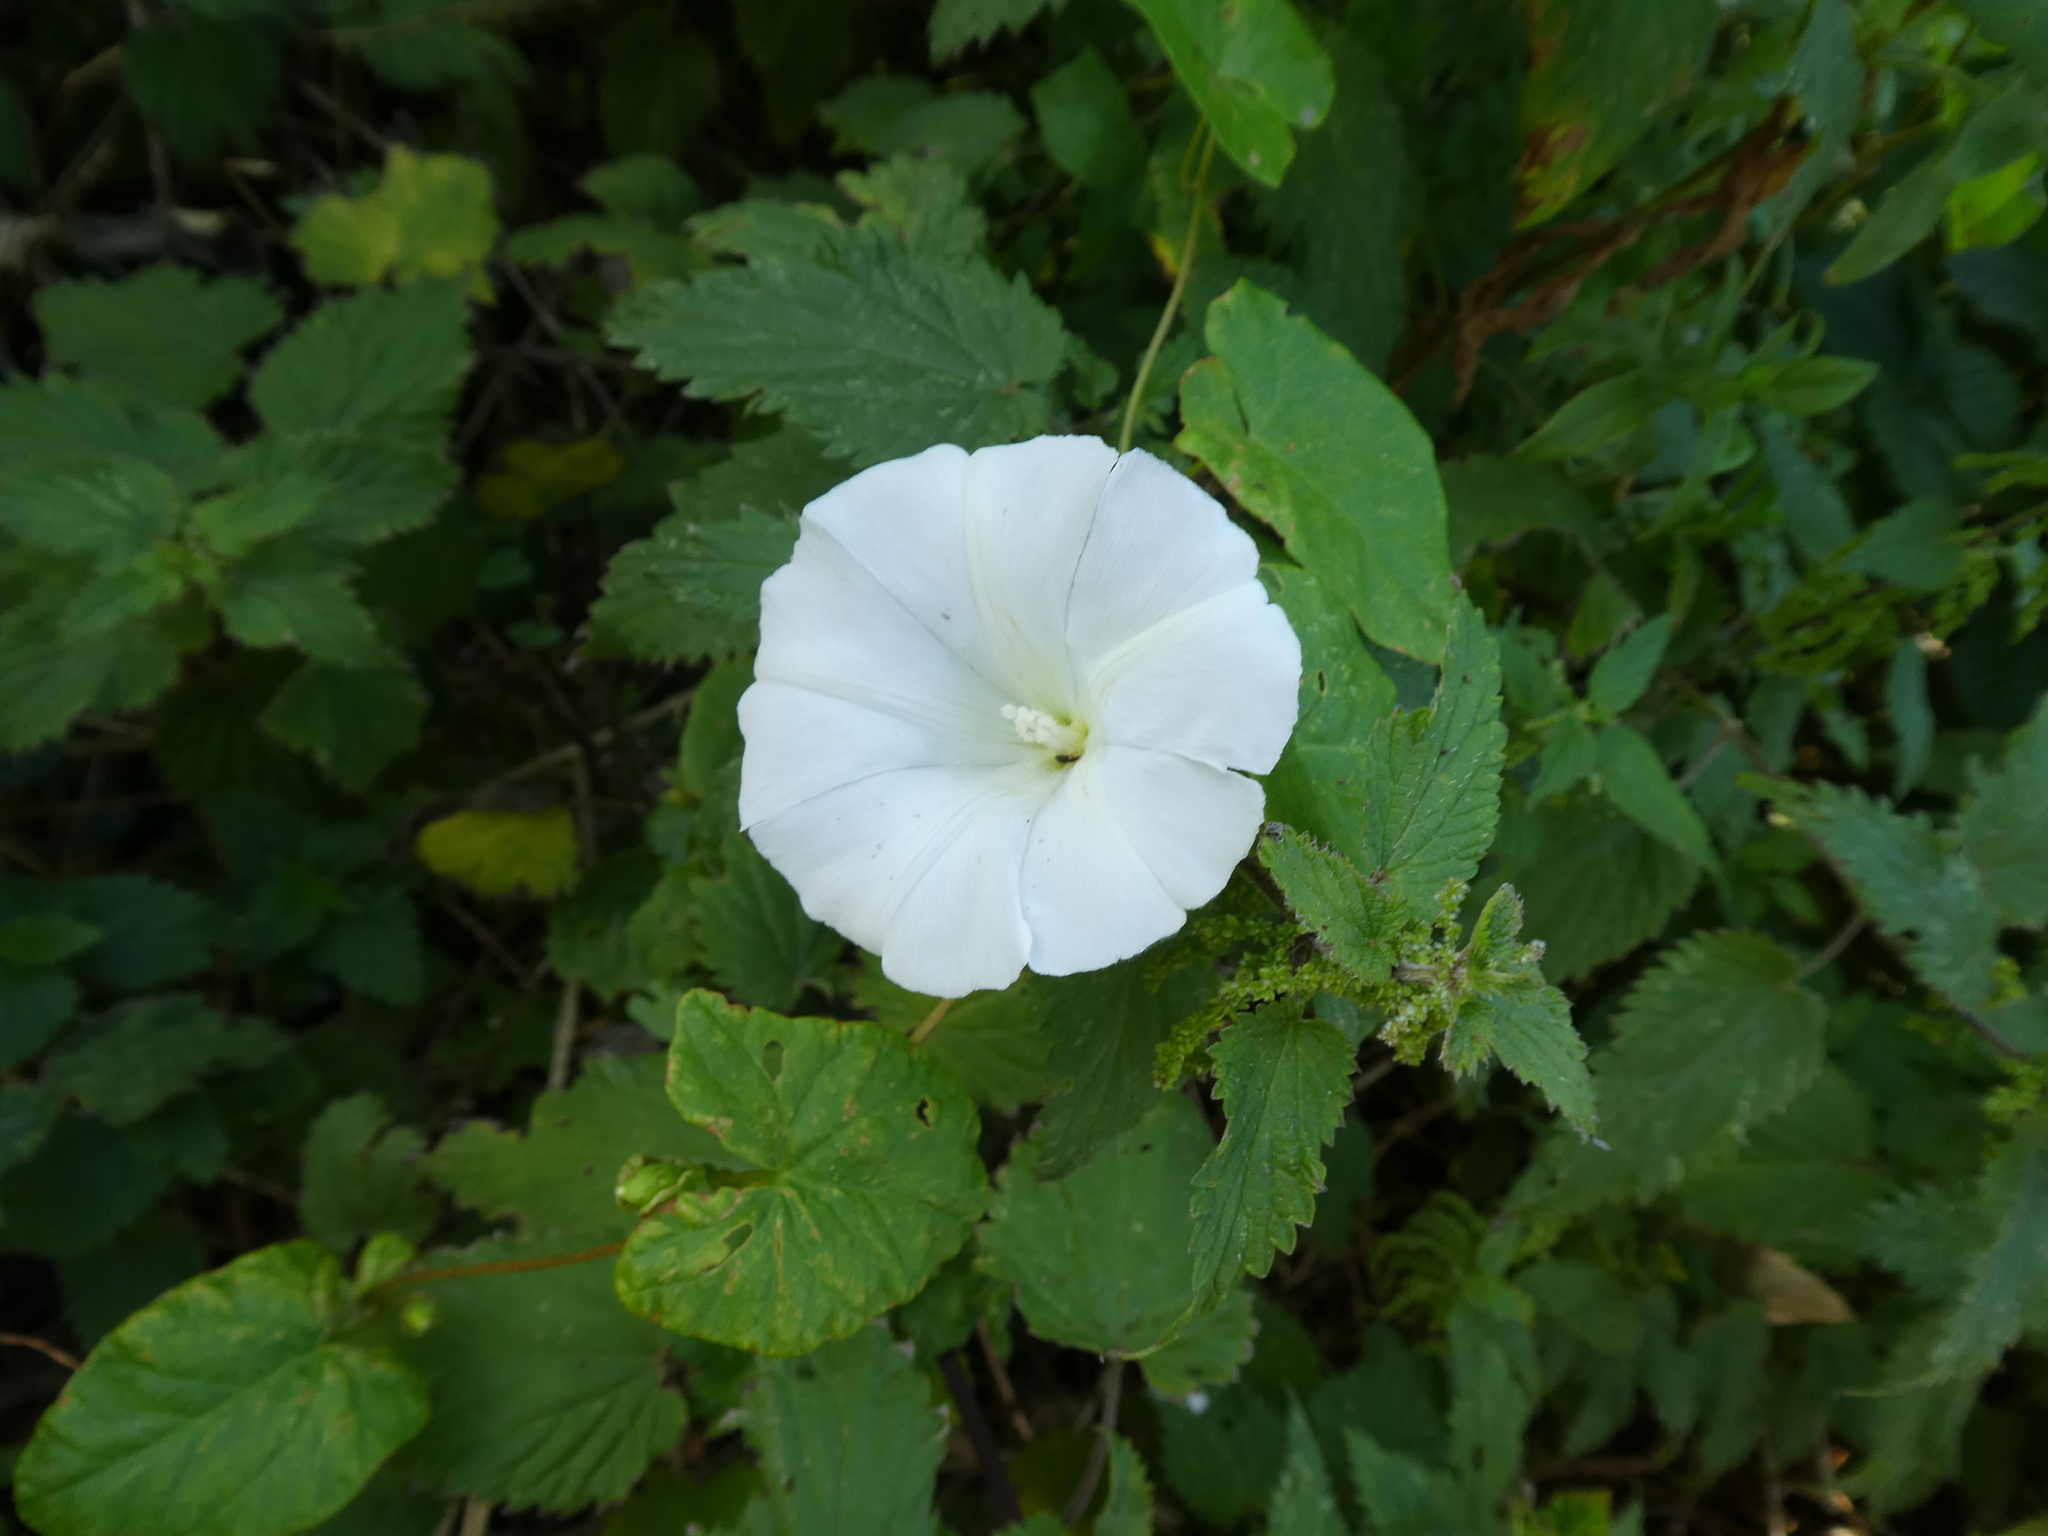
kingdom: Plantae
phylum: Tracheophyta
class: Magnoliopsida
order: Solanales
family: Convolvulaceae
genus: Calystegia
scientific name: Calystegia
